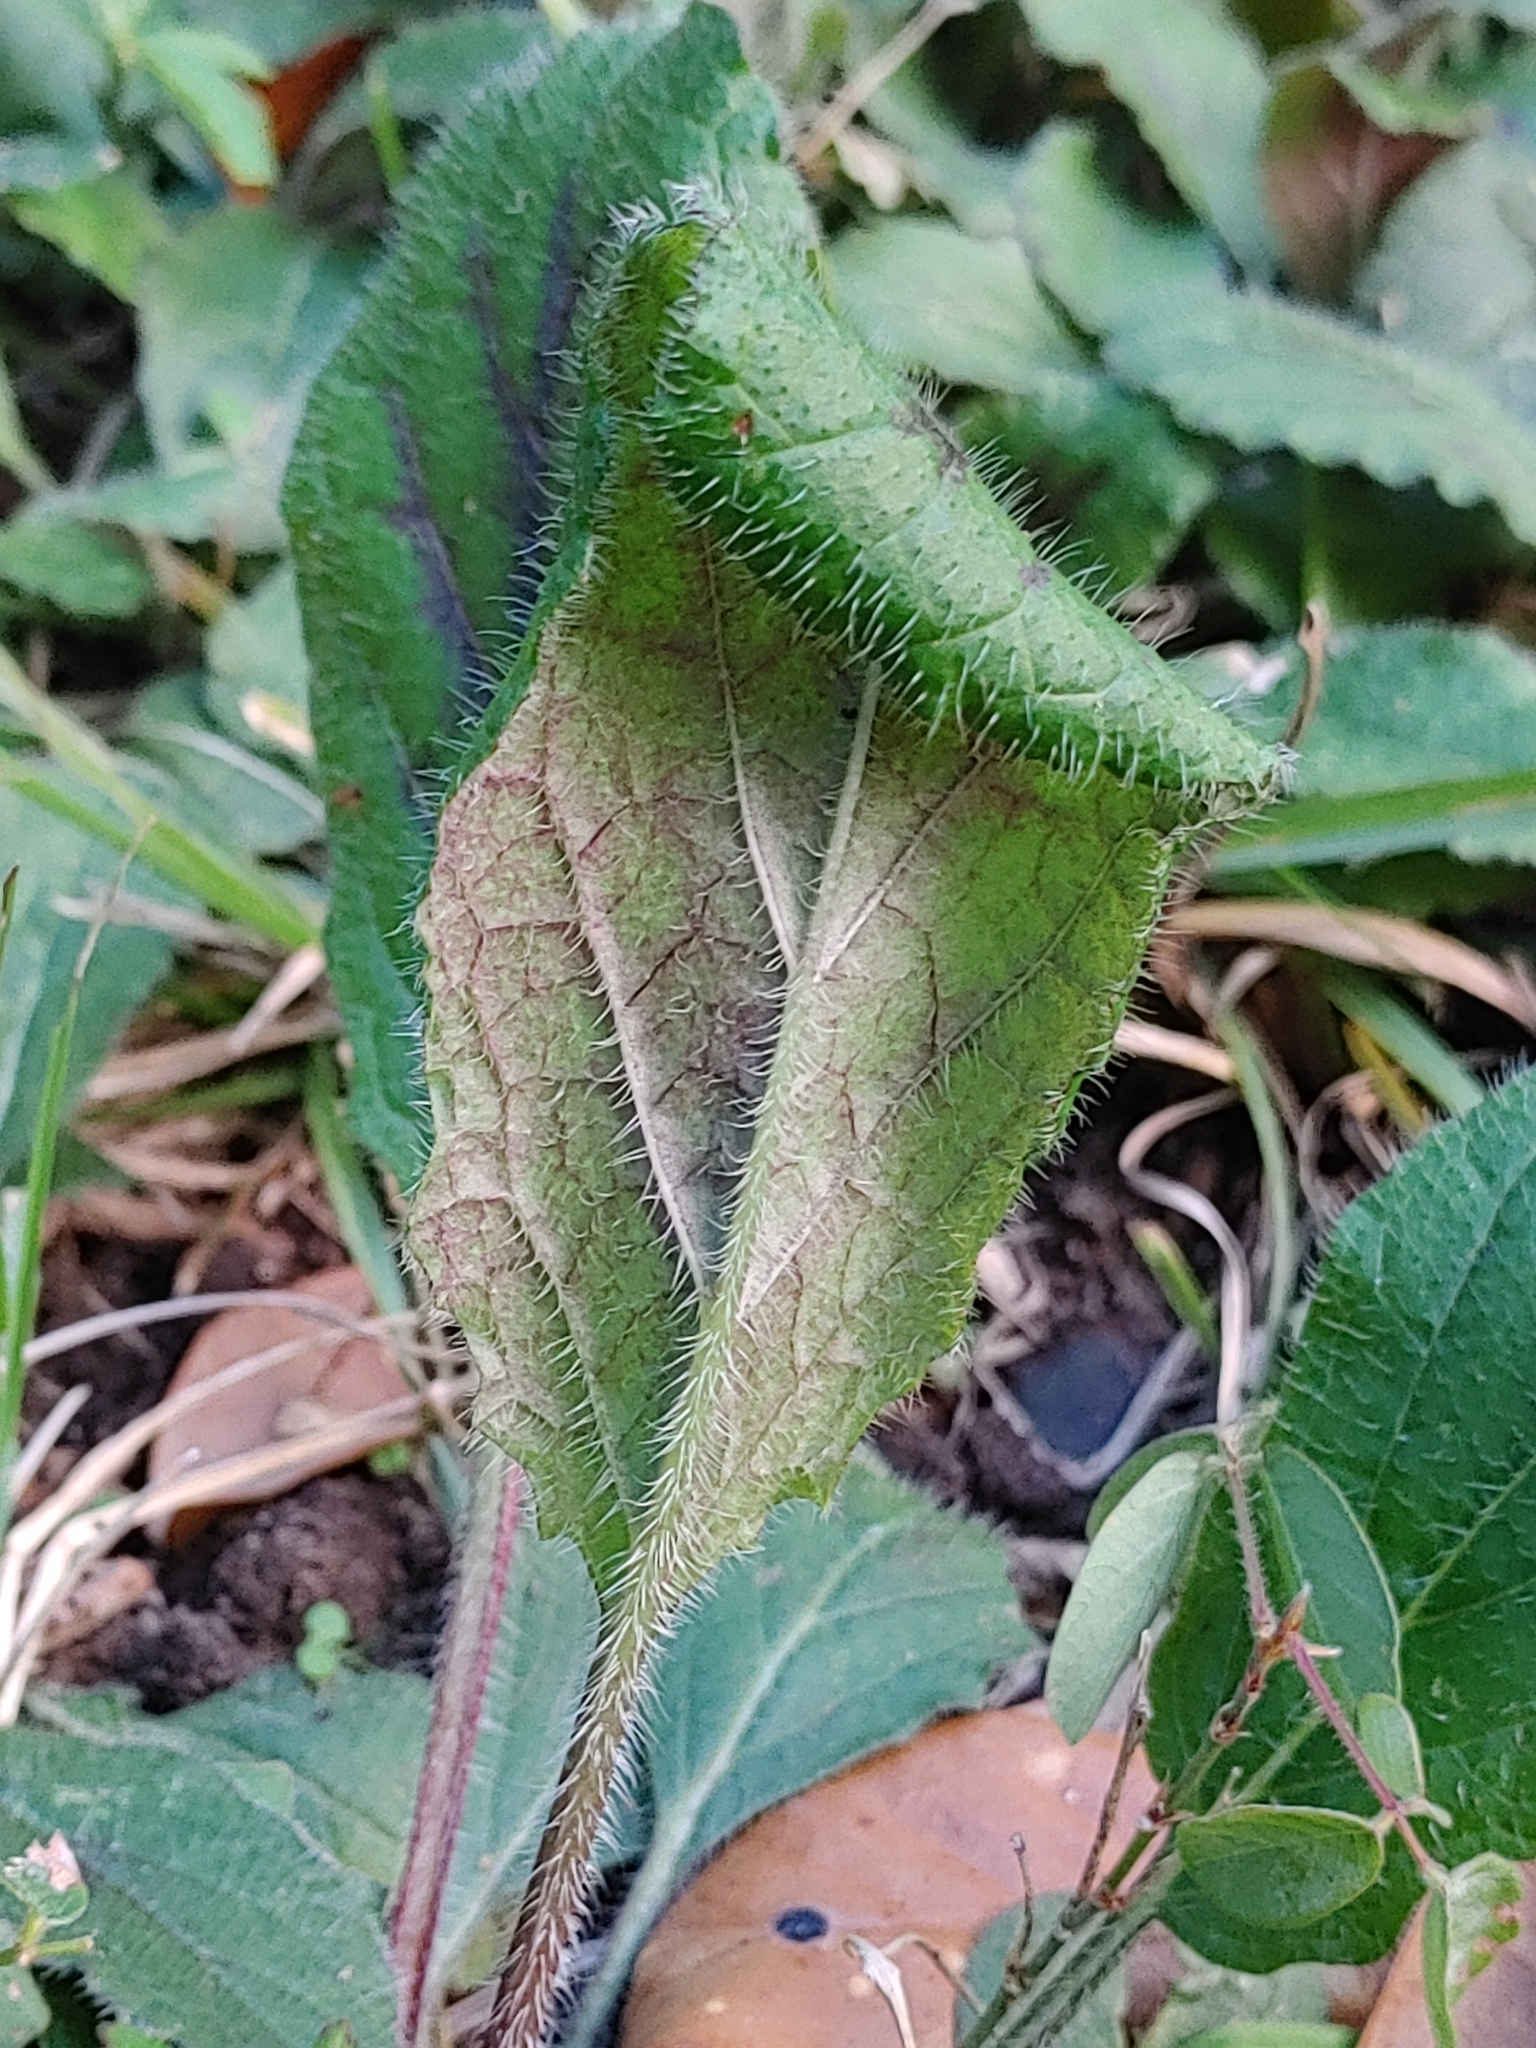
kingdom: Plantae
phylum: Tracheophyta
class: Magnoliopsida
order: Lamiales
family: Lamiaceae
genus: Salvia
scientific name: Salvia lyrata
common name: Cancerweed
